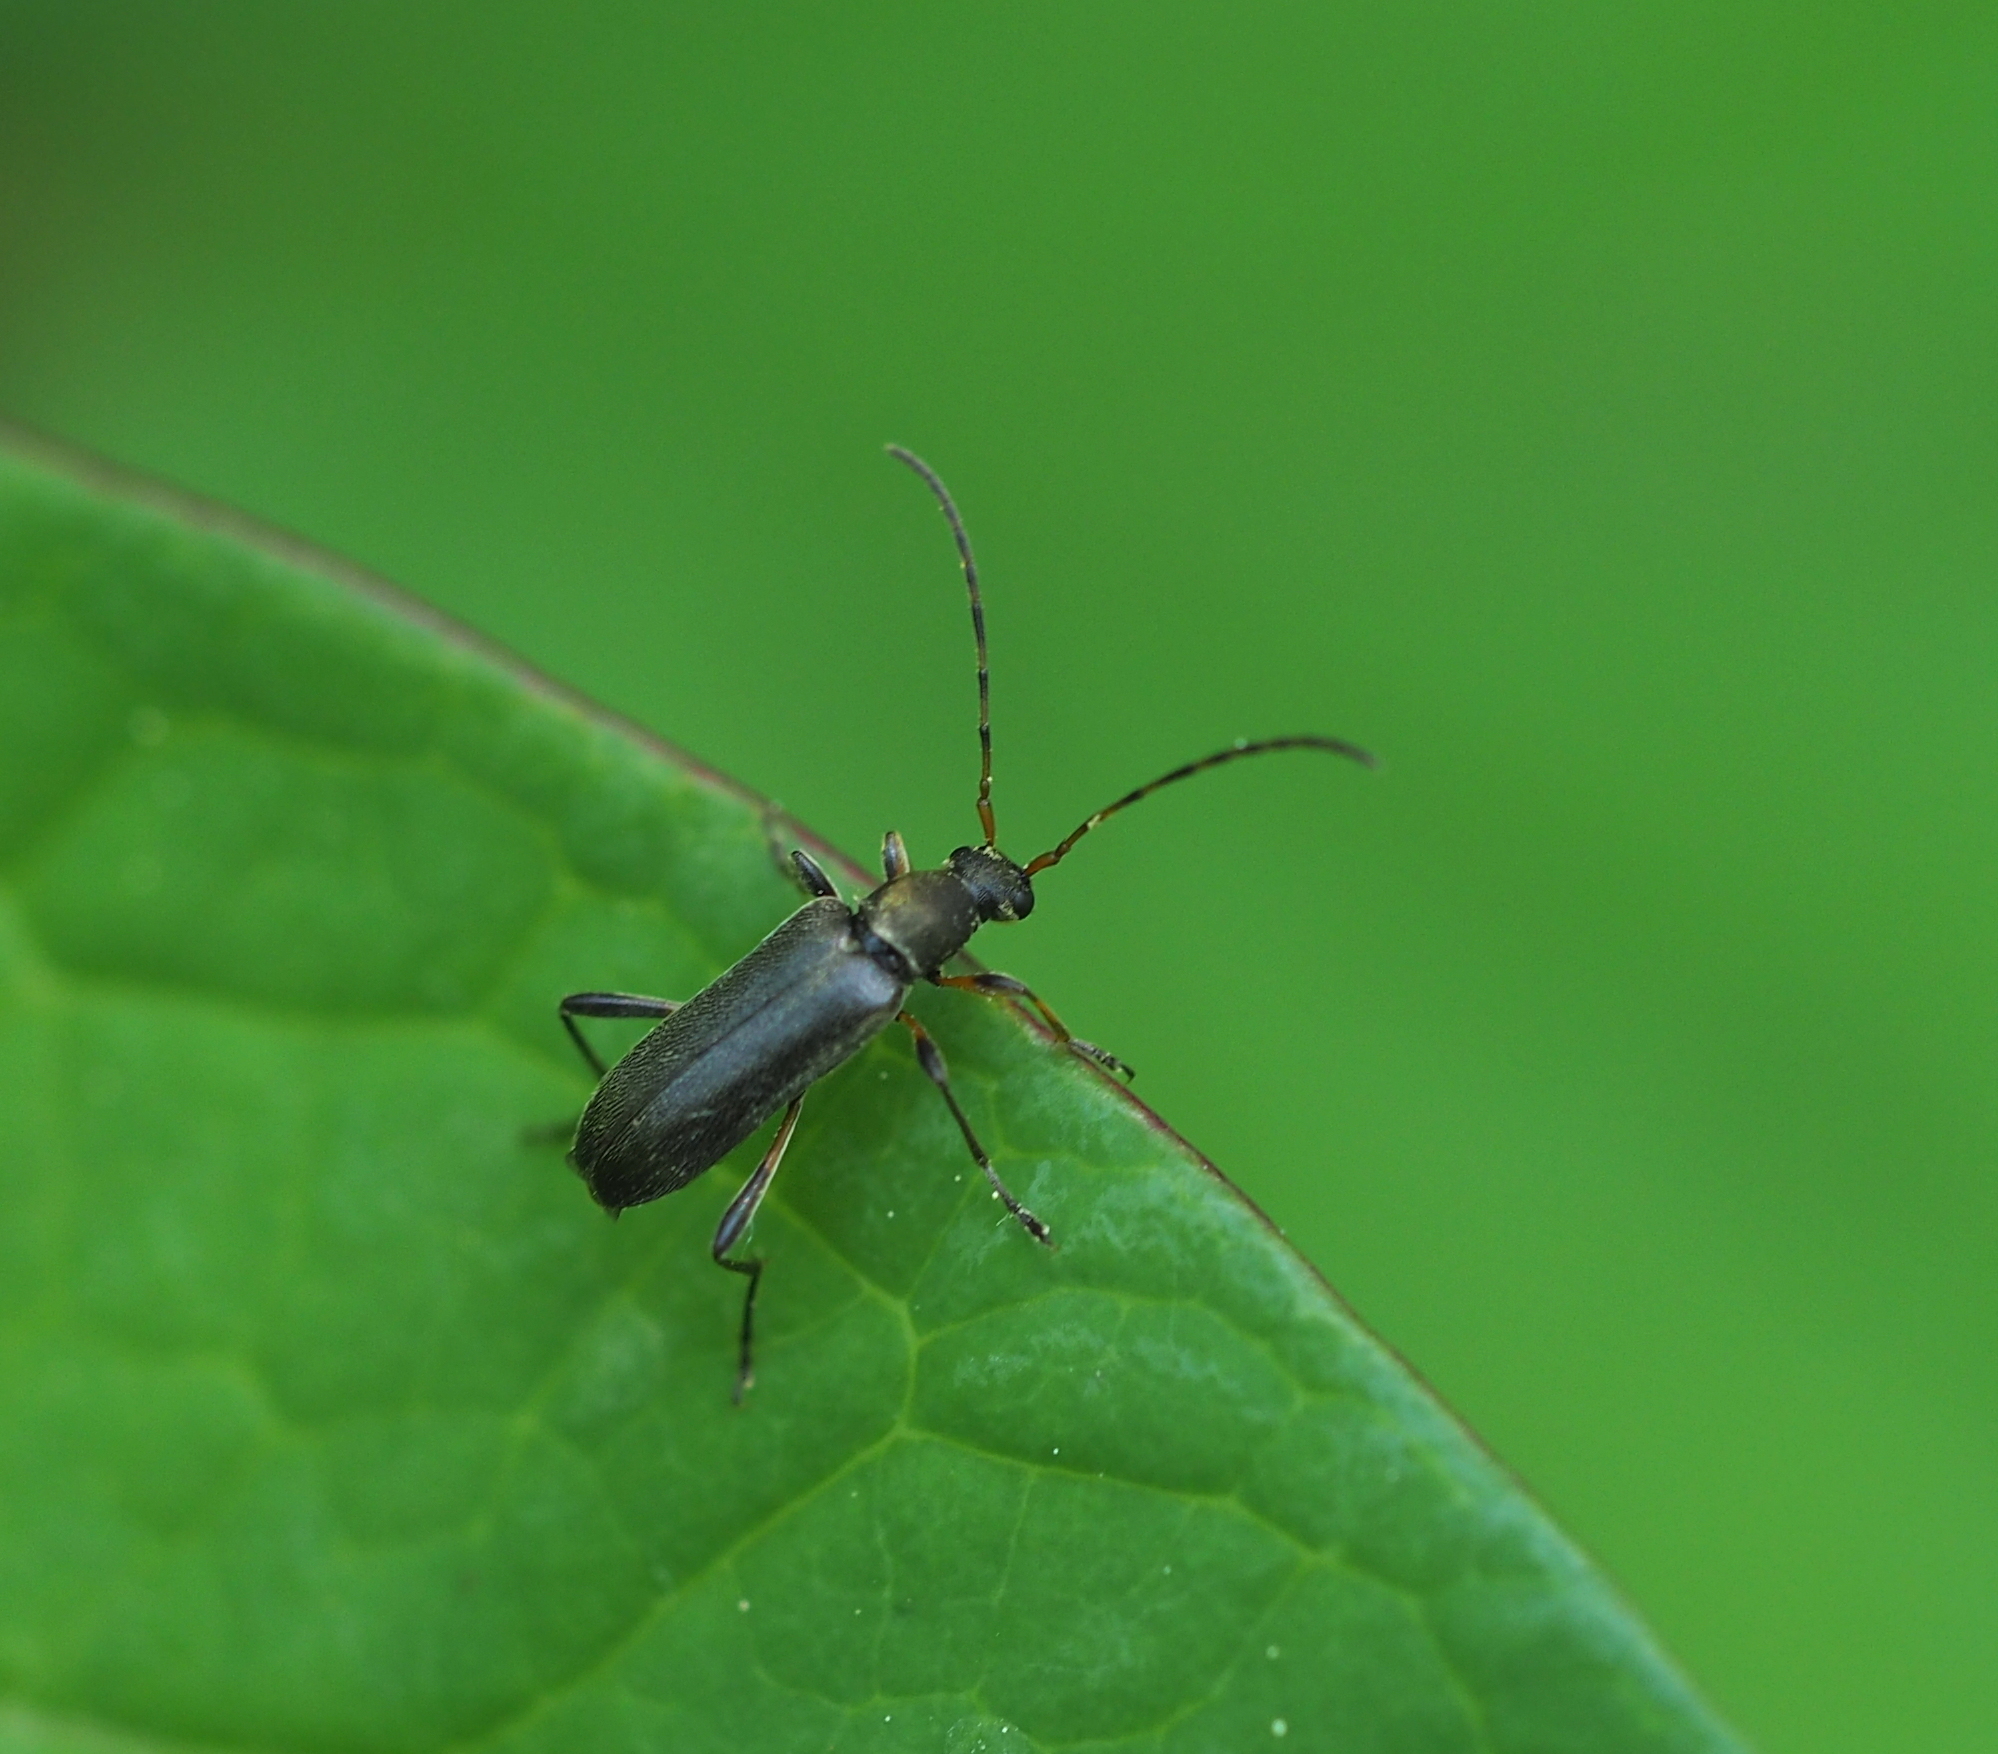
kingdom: Animalia
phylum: Arthropoda
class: Insecta
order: Coleoptera
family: Cerambycidae
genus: Grammoptera
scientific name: Grammoptera ruficornis
